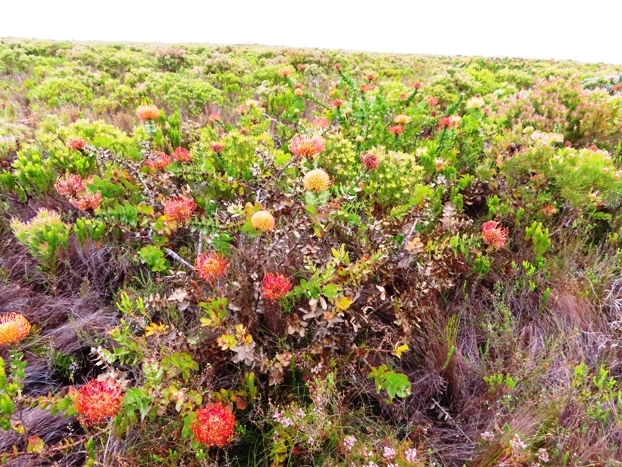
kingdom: Plantae
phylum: Tracheophyta
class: Magnoliopsida
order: Proteales
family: Proteaceae
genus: Leucospermum
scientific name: Leucospermum
